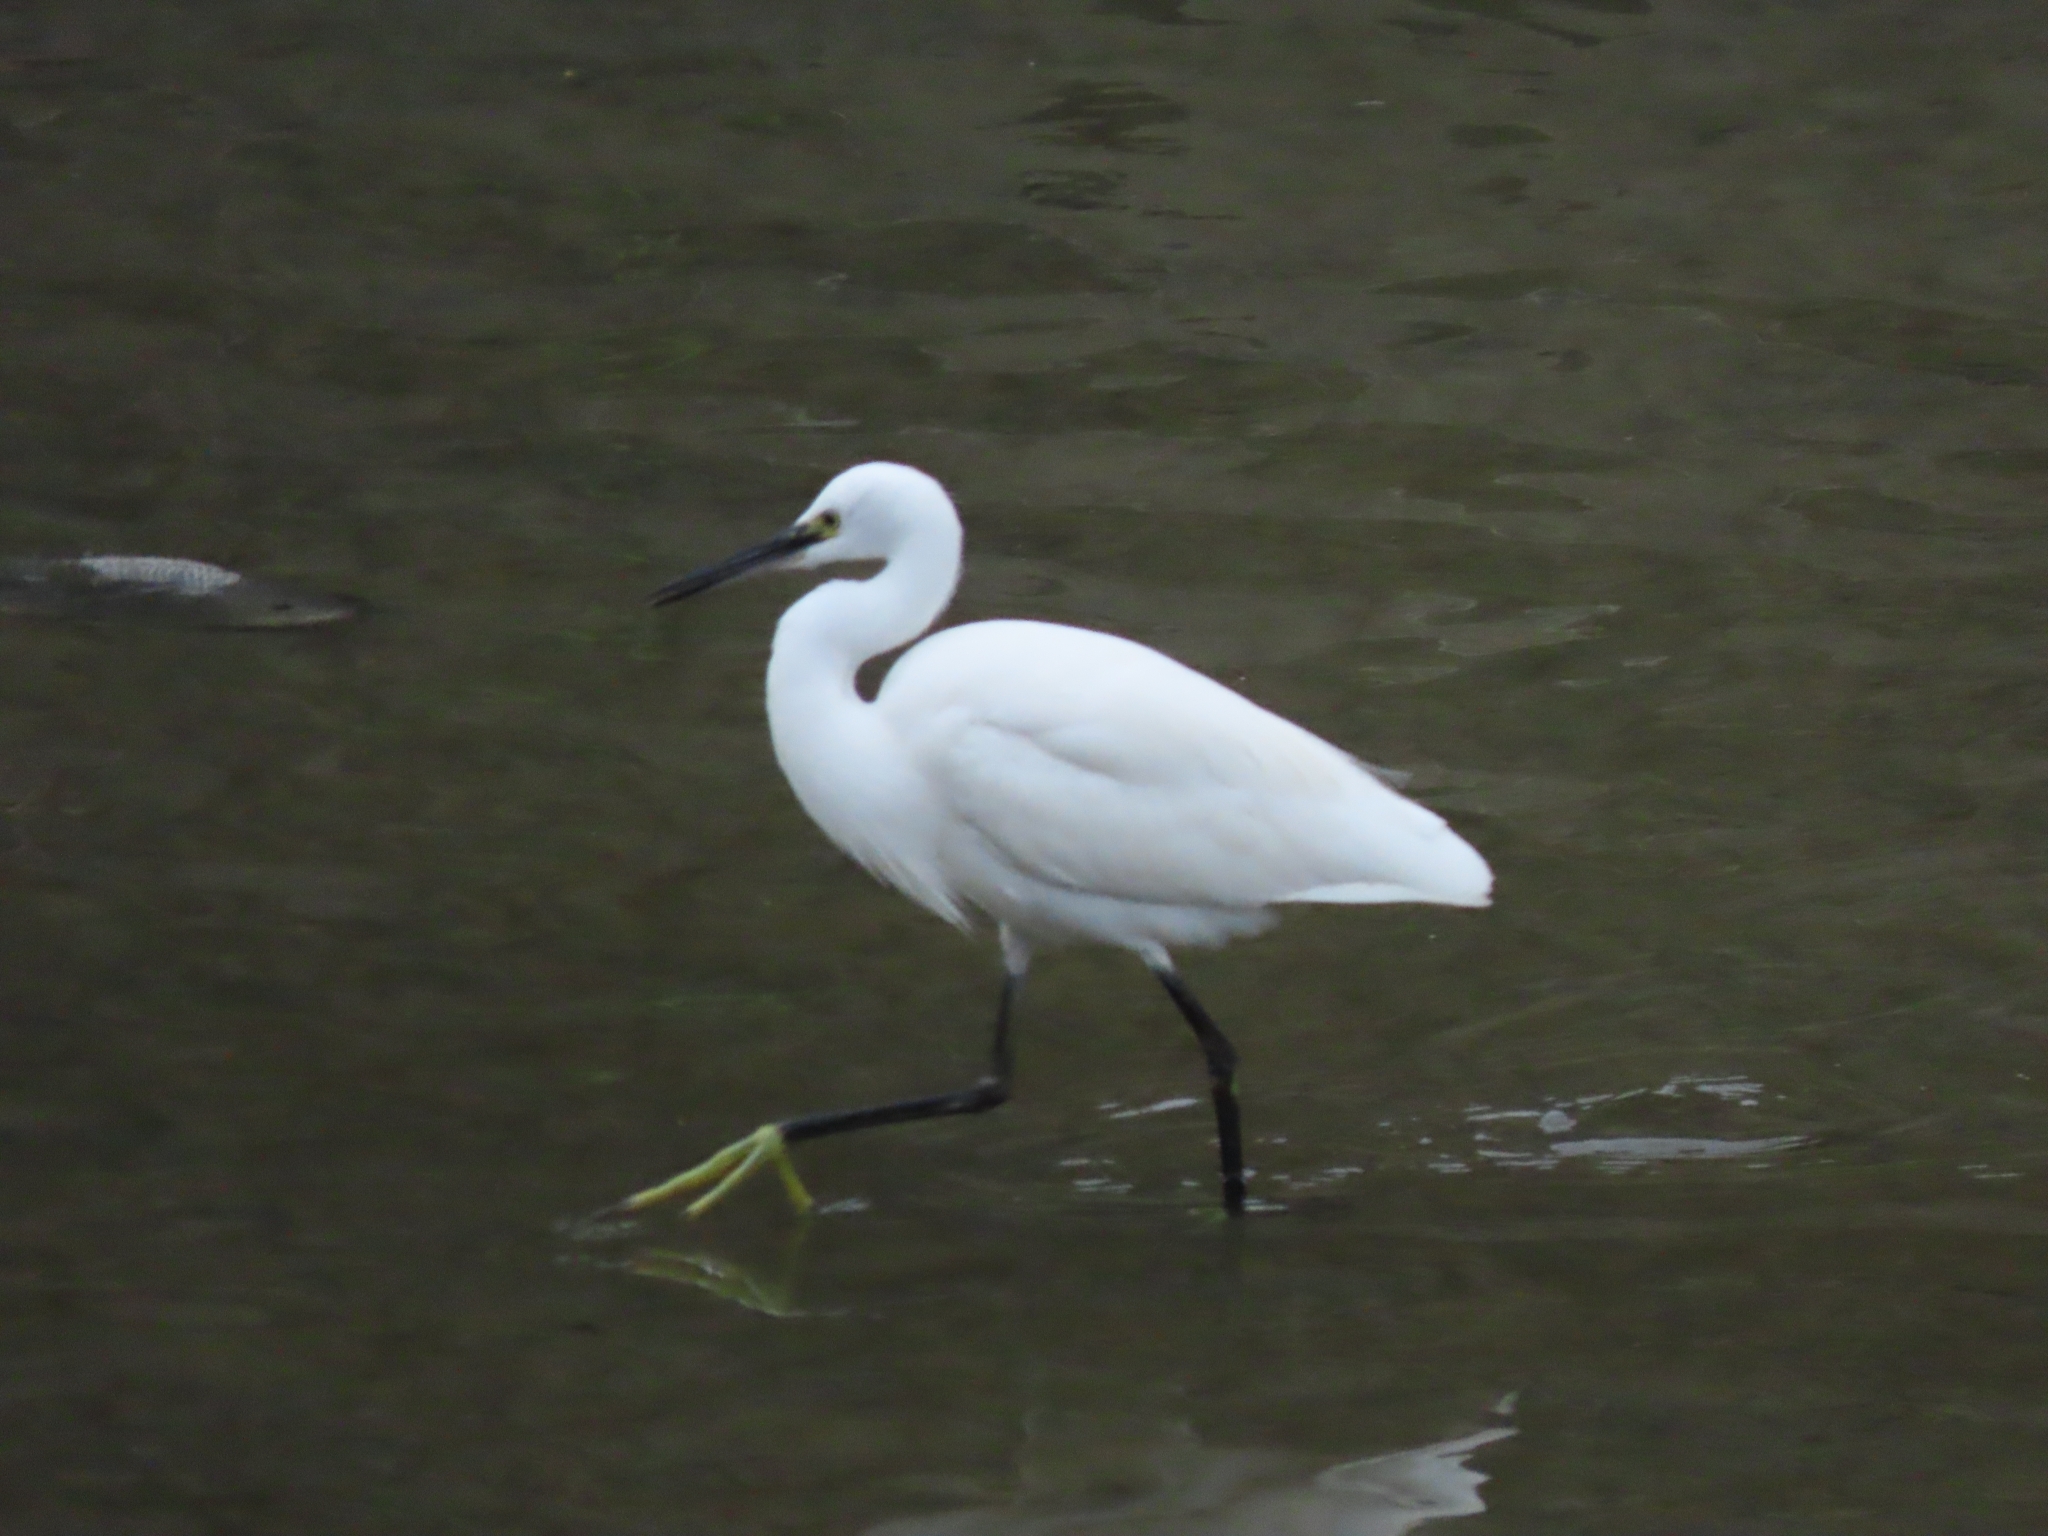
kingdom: Animalia
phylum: Chordata
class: Aves
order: Pelecaniformes
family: Ardeidae
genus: Egretta
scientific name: Egretta garzetta
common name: Little egret
